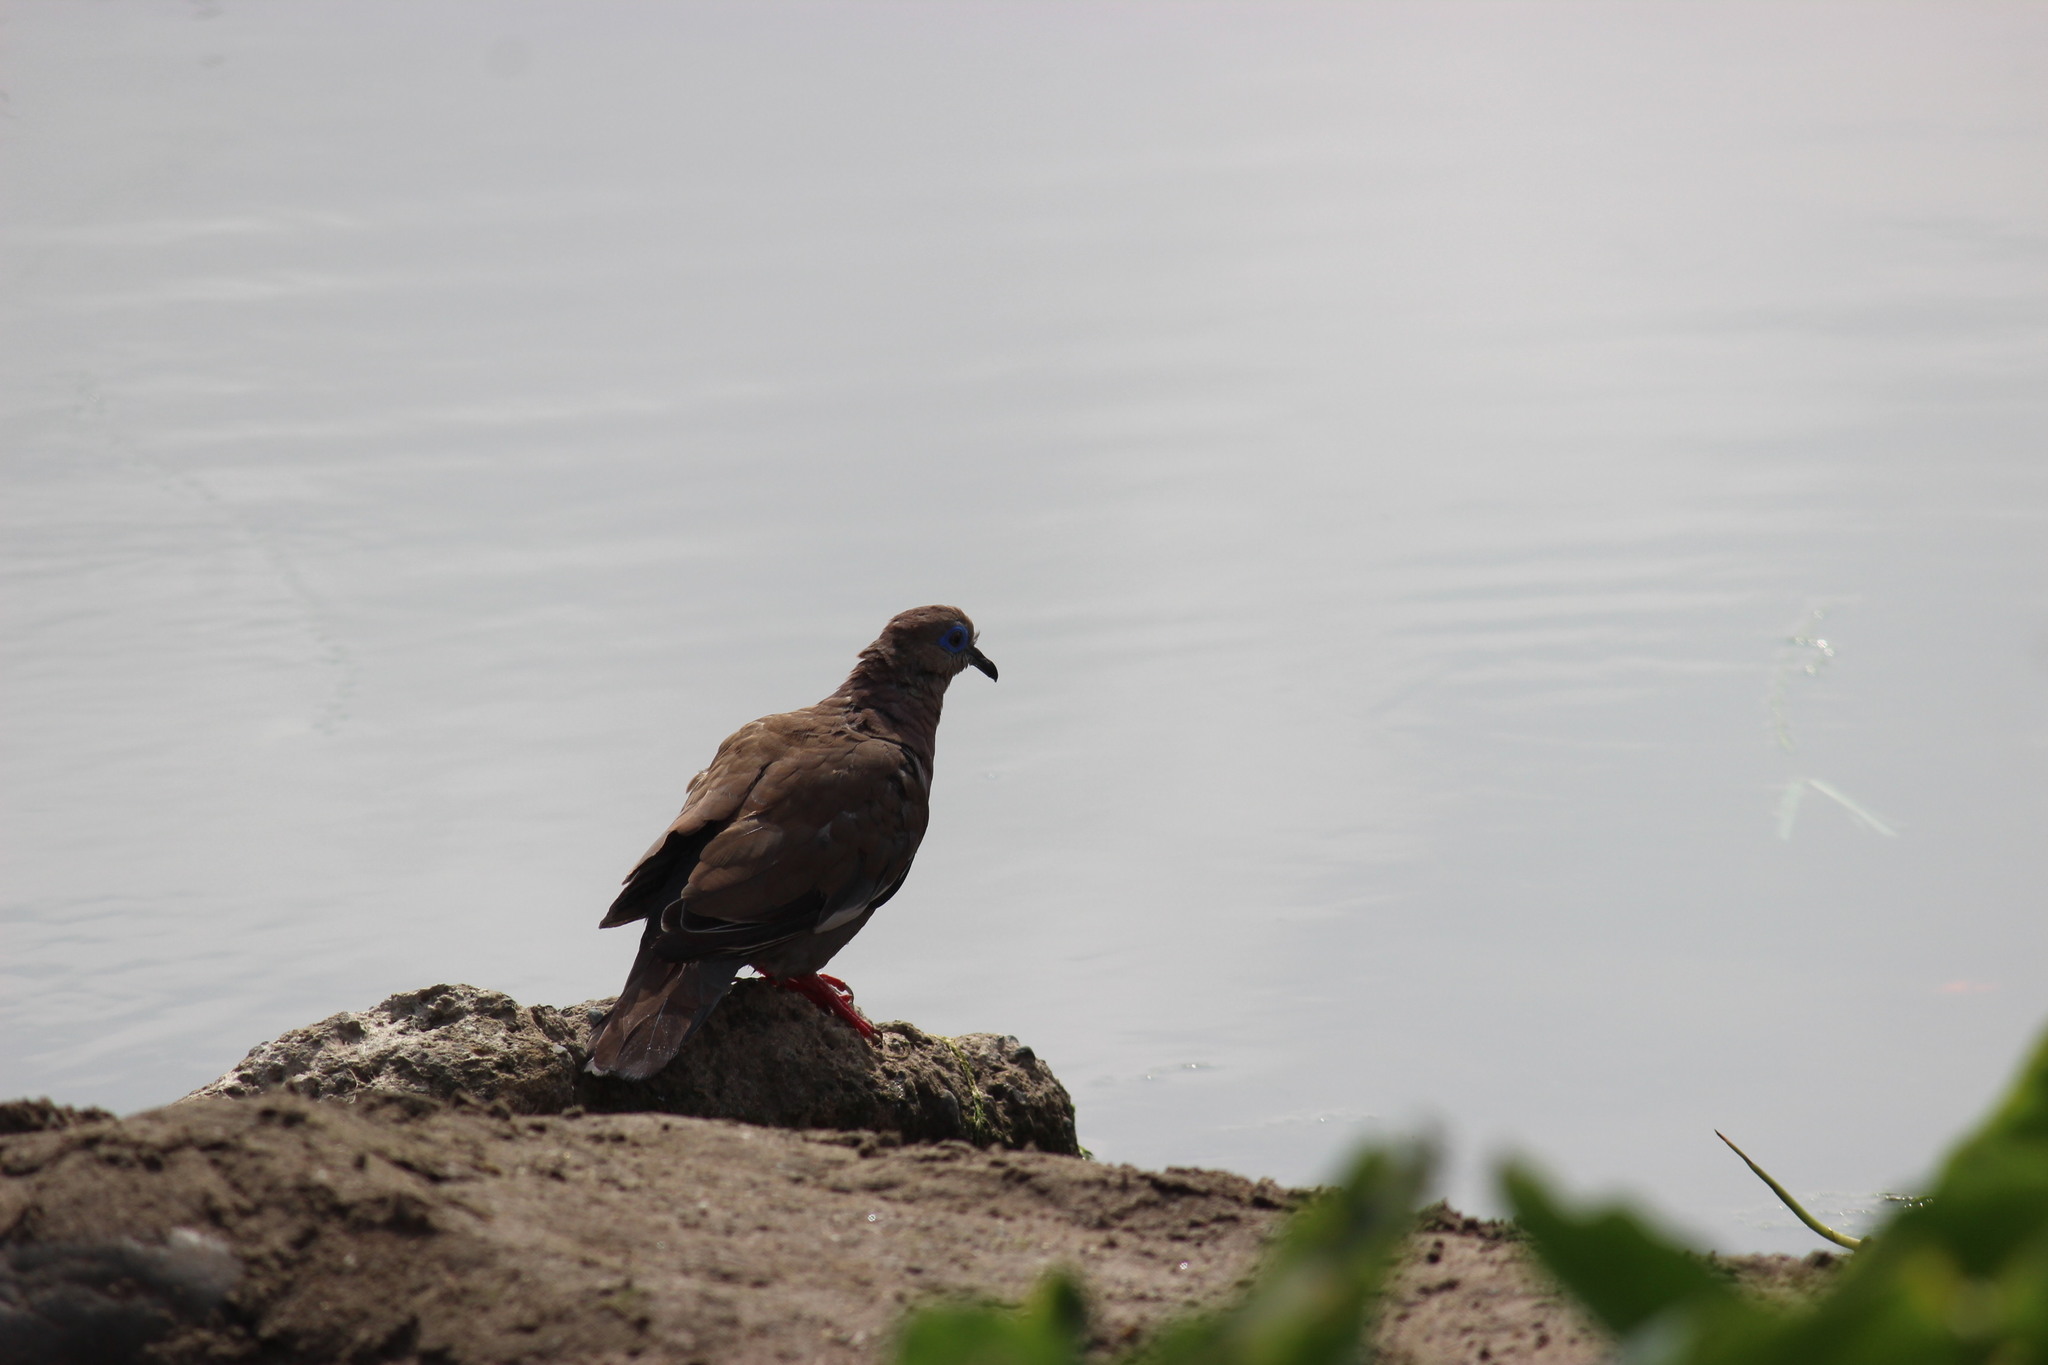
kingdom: Animalia
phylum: Chordata
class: Aves
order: Columbiformes
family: Columbidae
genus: Zenaida
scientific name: Zenaida meloda
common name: West peruvian dove
